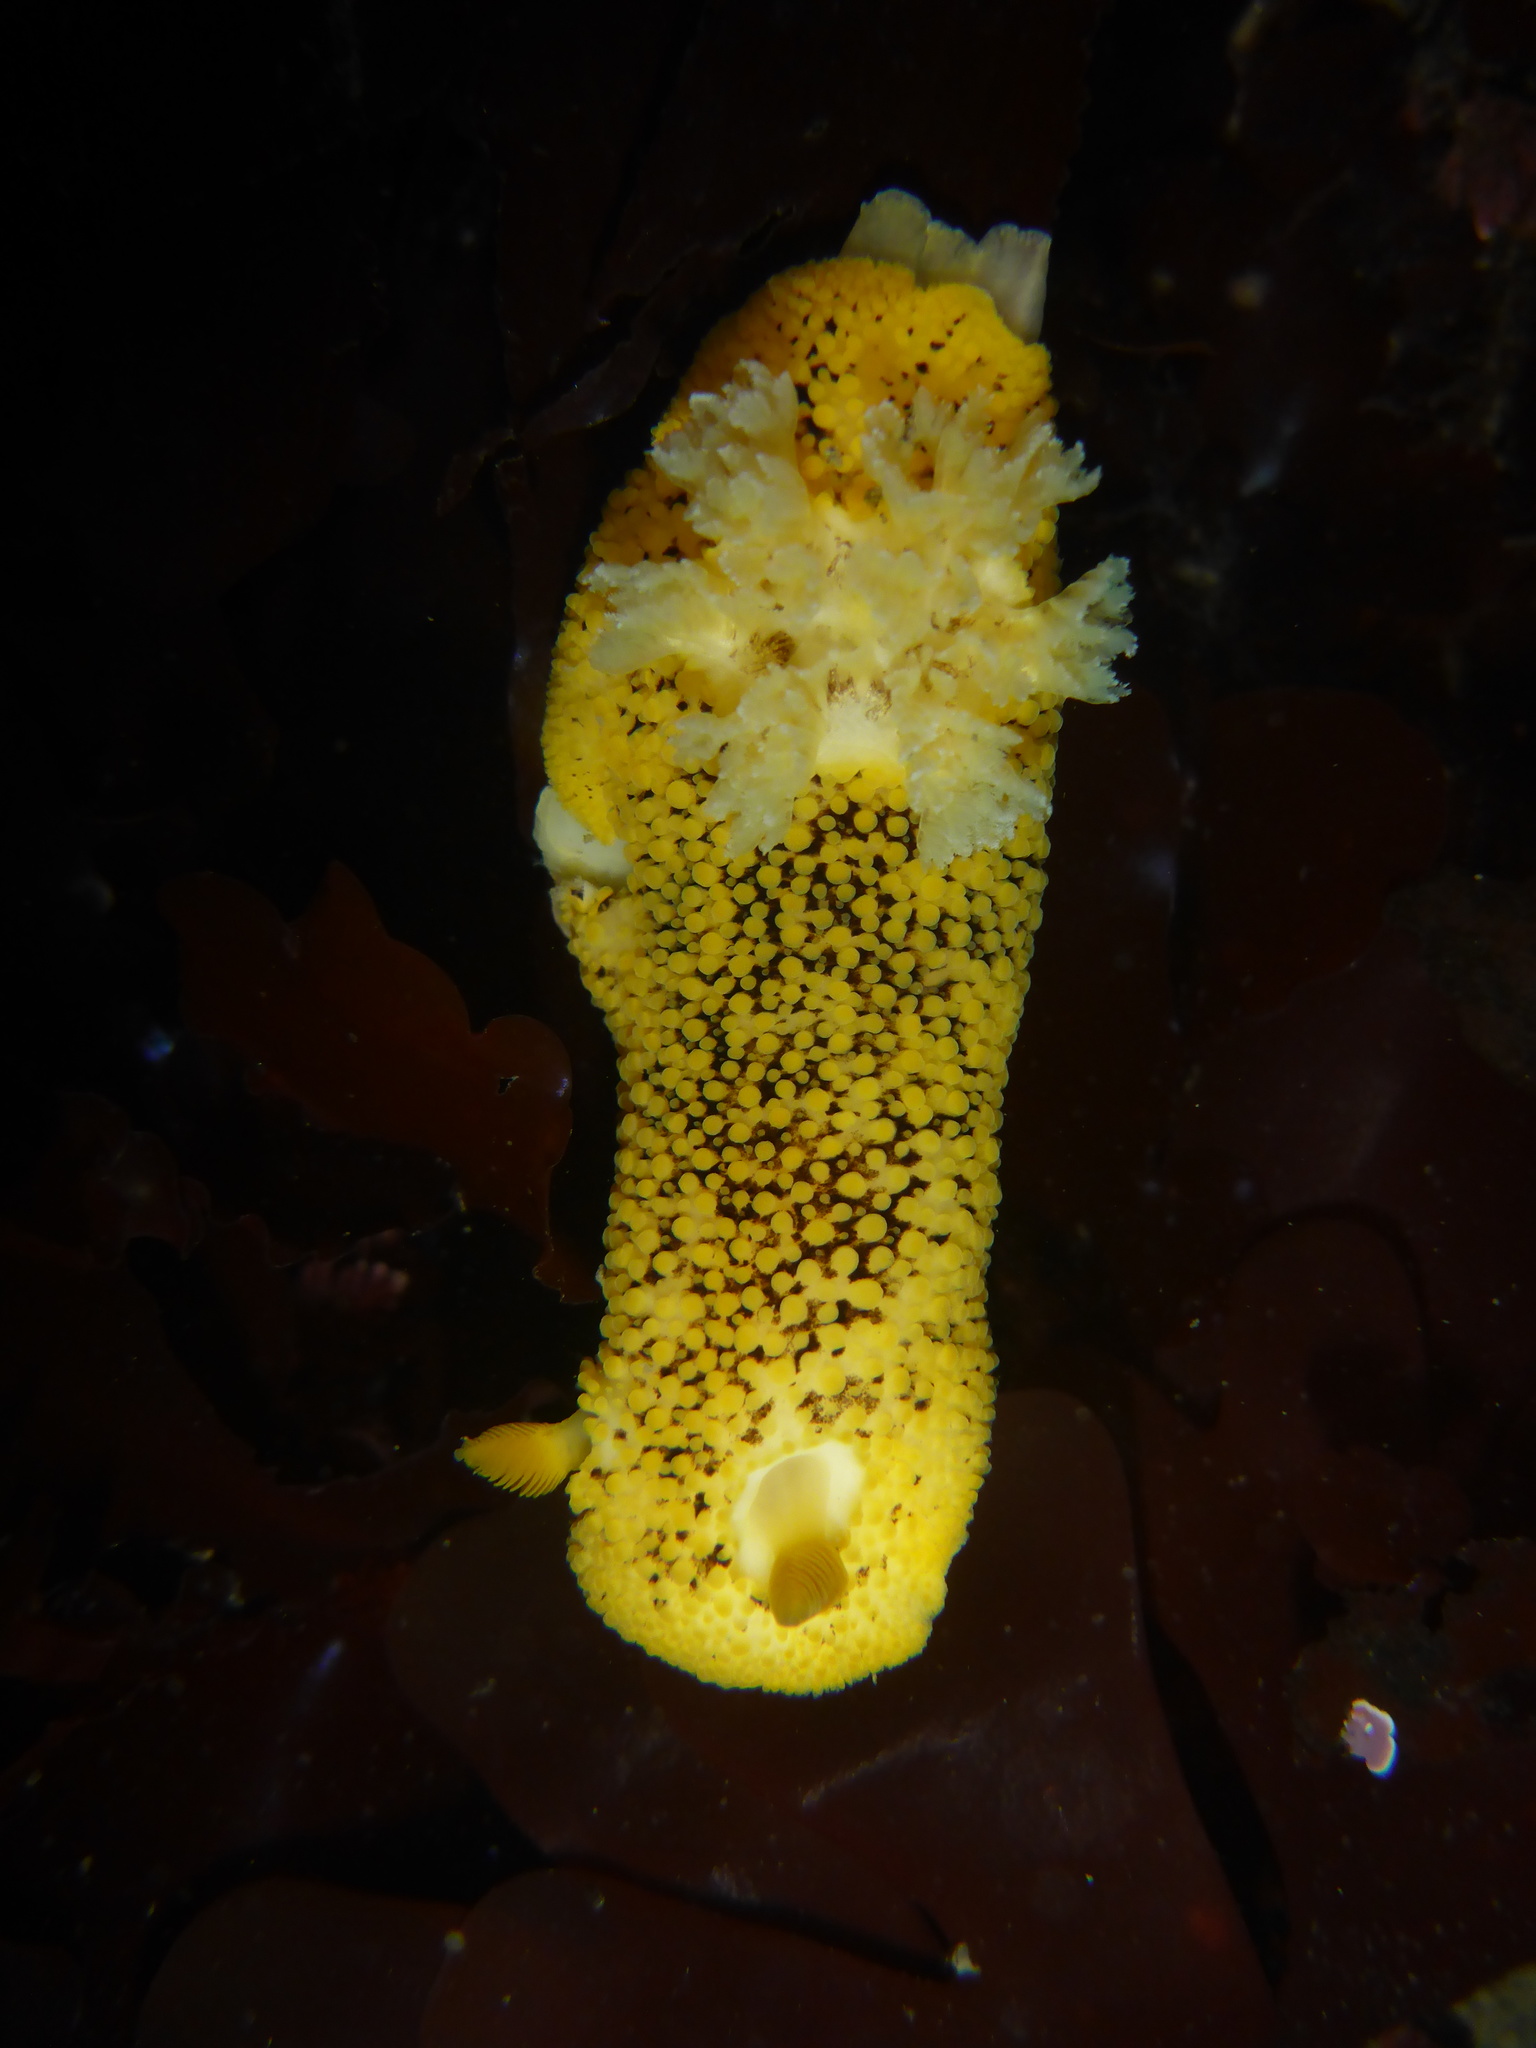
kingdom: Animalia
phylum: Mollusca
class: Gastropoda
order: Nudibranchia
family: Discodorididae
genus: Peltodoris
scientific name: Peltodoris nobilis
